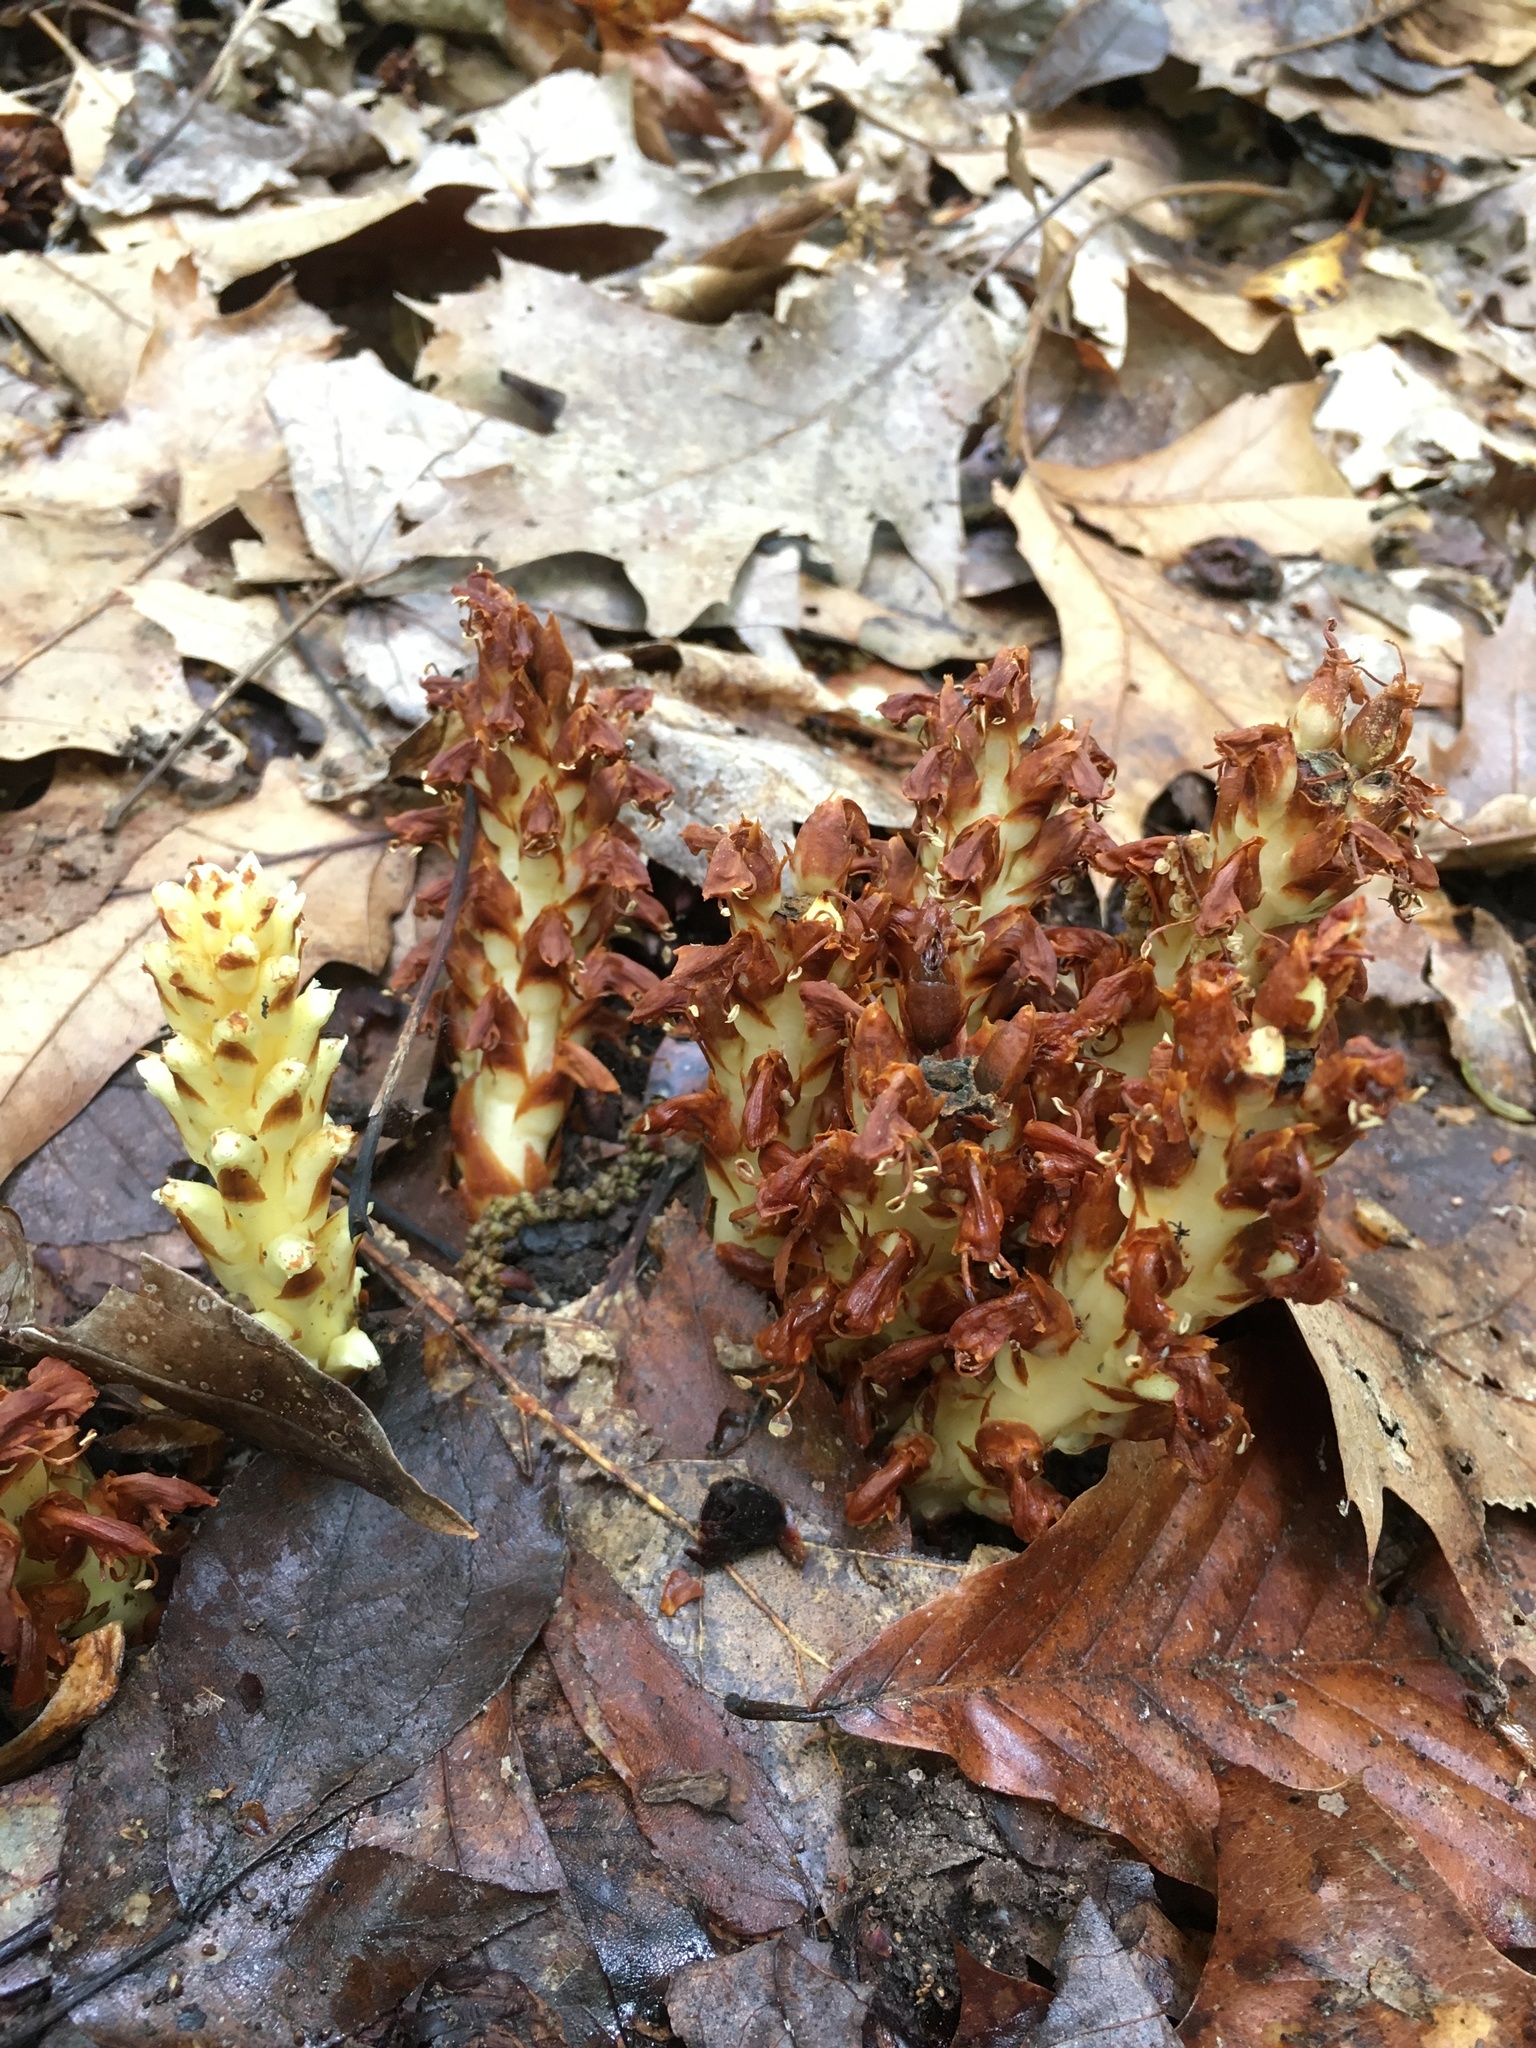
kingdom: Plantae
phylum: Tracheophyta
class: Magnoliopsida
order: Lamiales
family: Orobanchaceae
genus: Conopholis
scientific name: Conopholis americana
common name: American cancer-root
